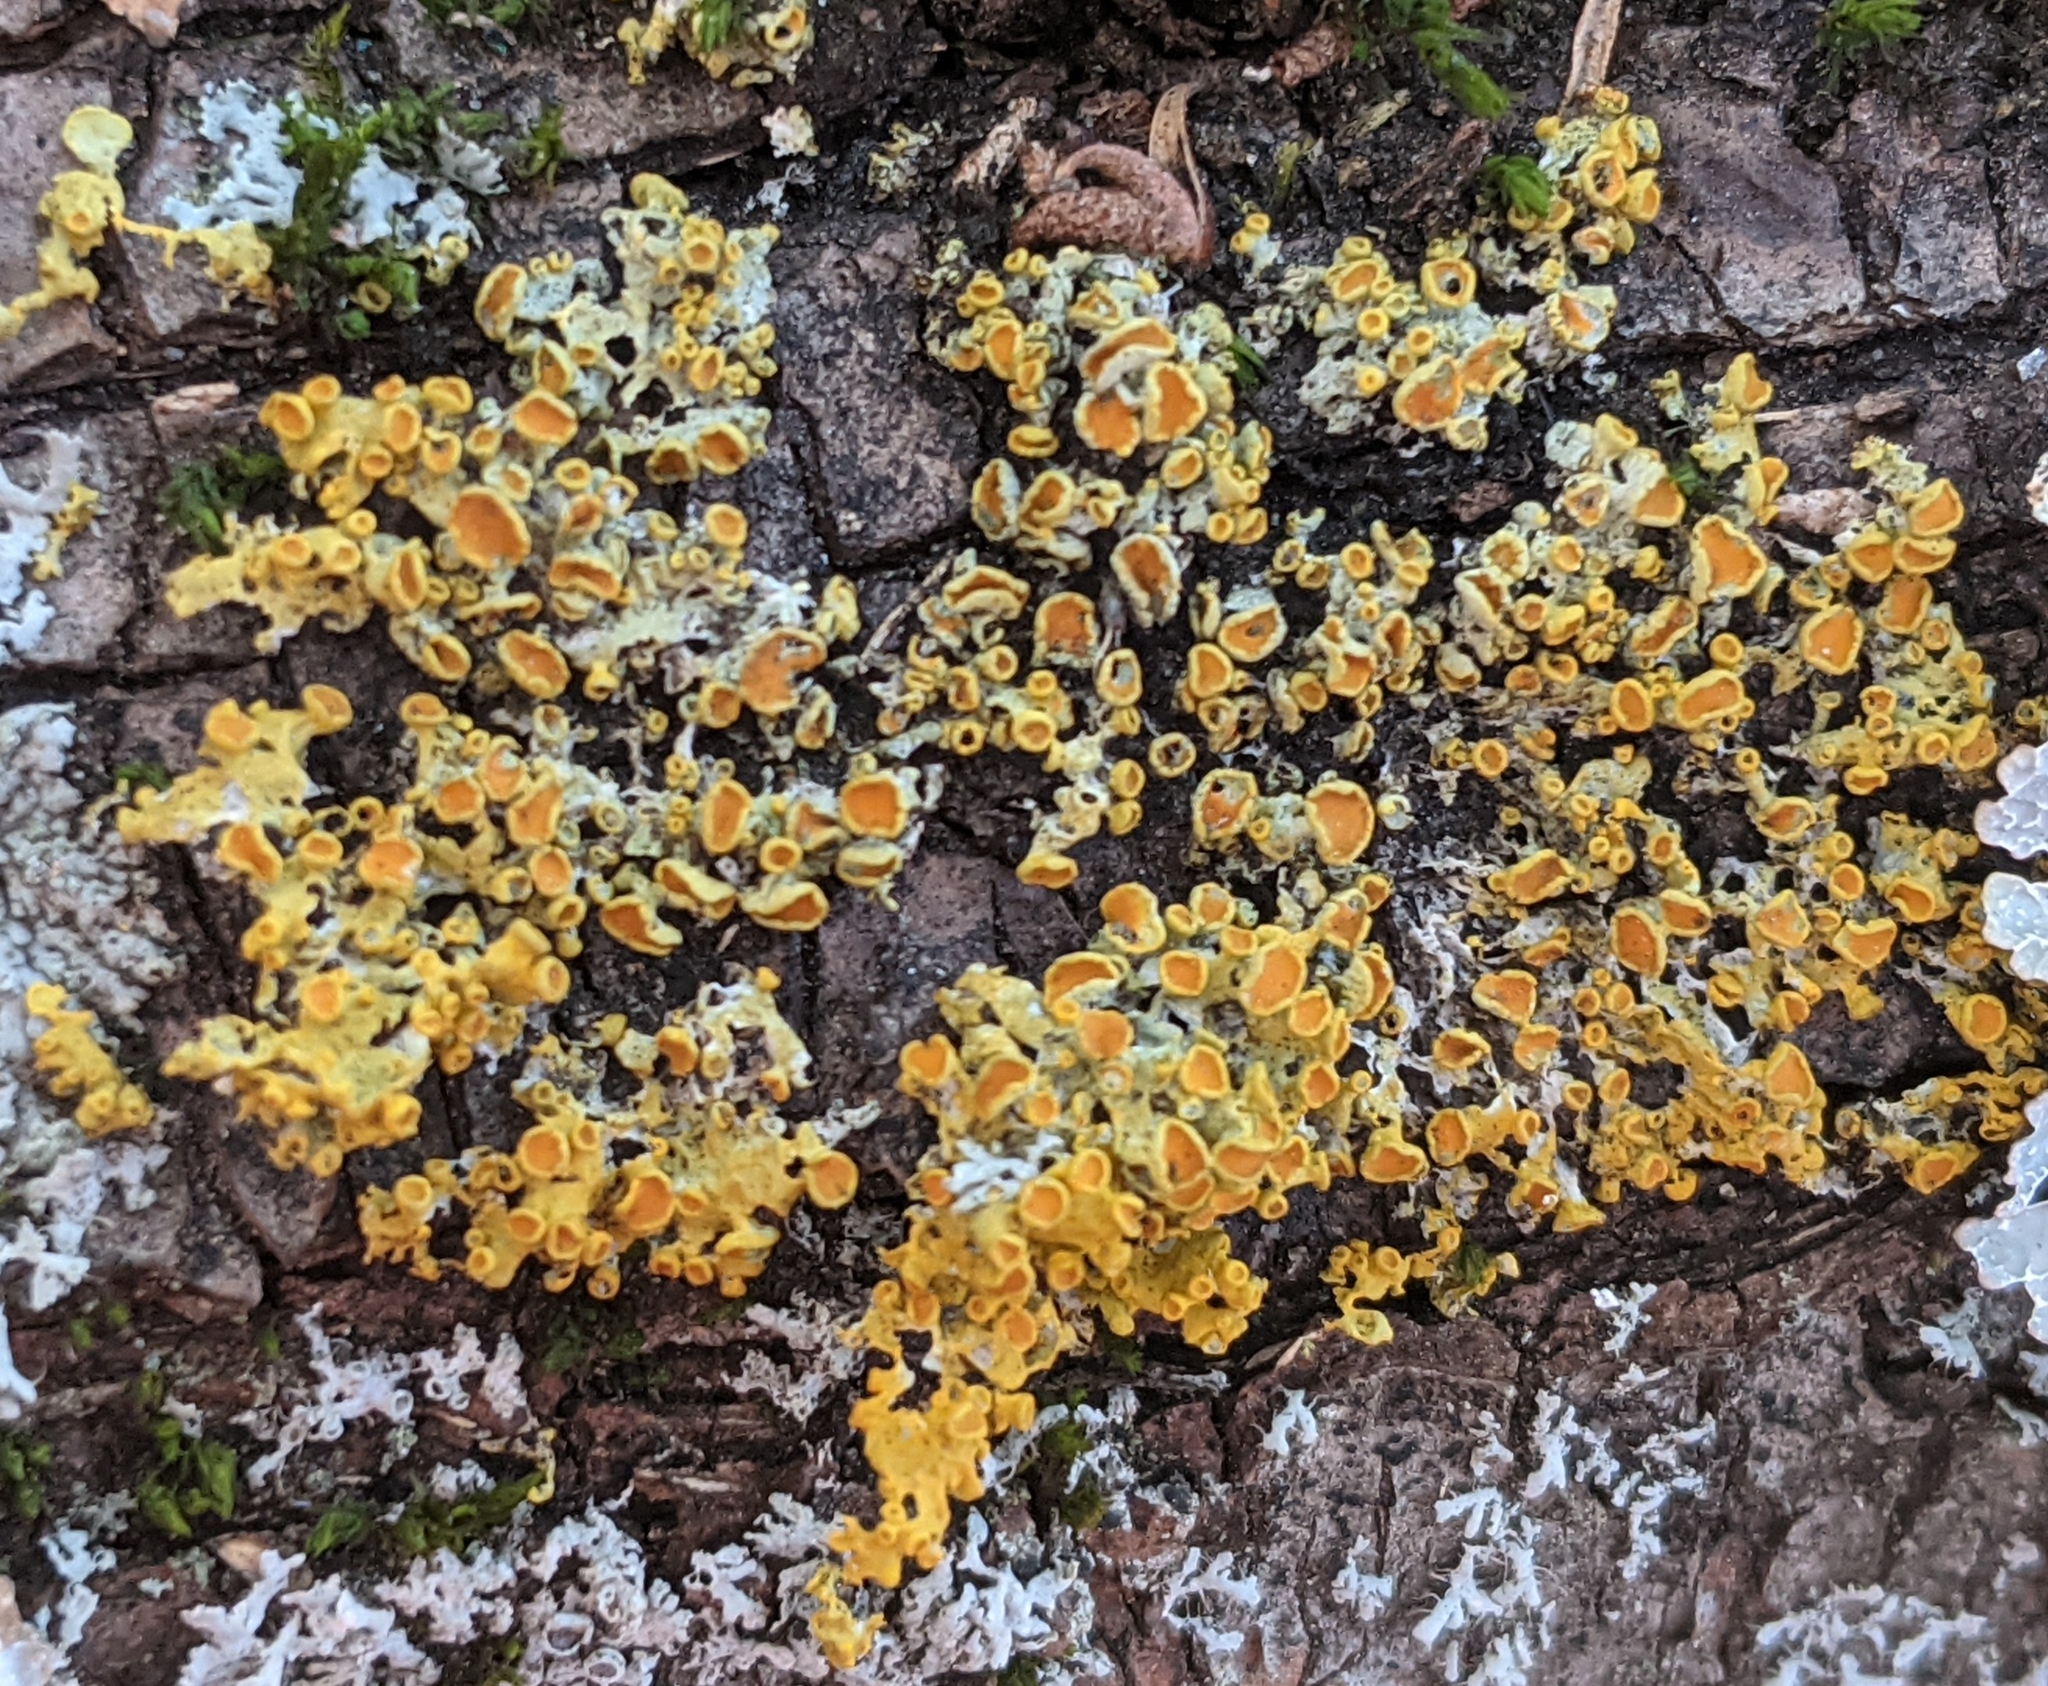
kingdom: Fungi
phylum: Ascomycota
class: Lecanoromycetes
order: Teloschistales
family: Teloschistaceae
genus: Xanthoria
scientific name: Xanthoria parietina
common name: Common orange lichen
